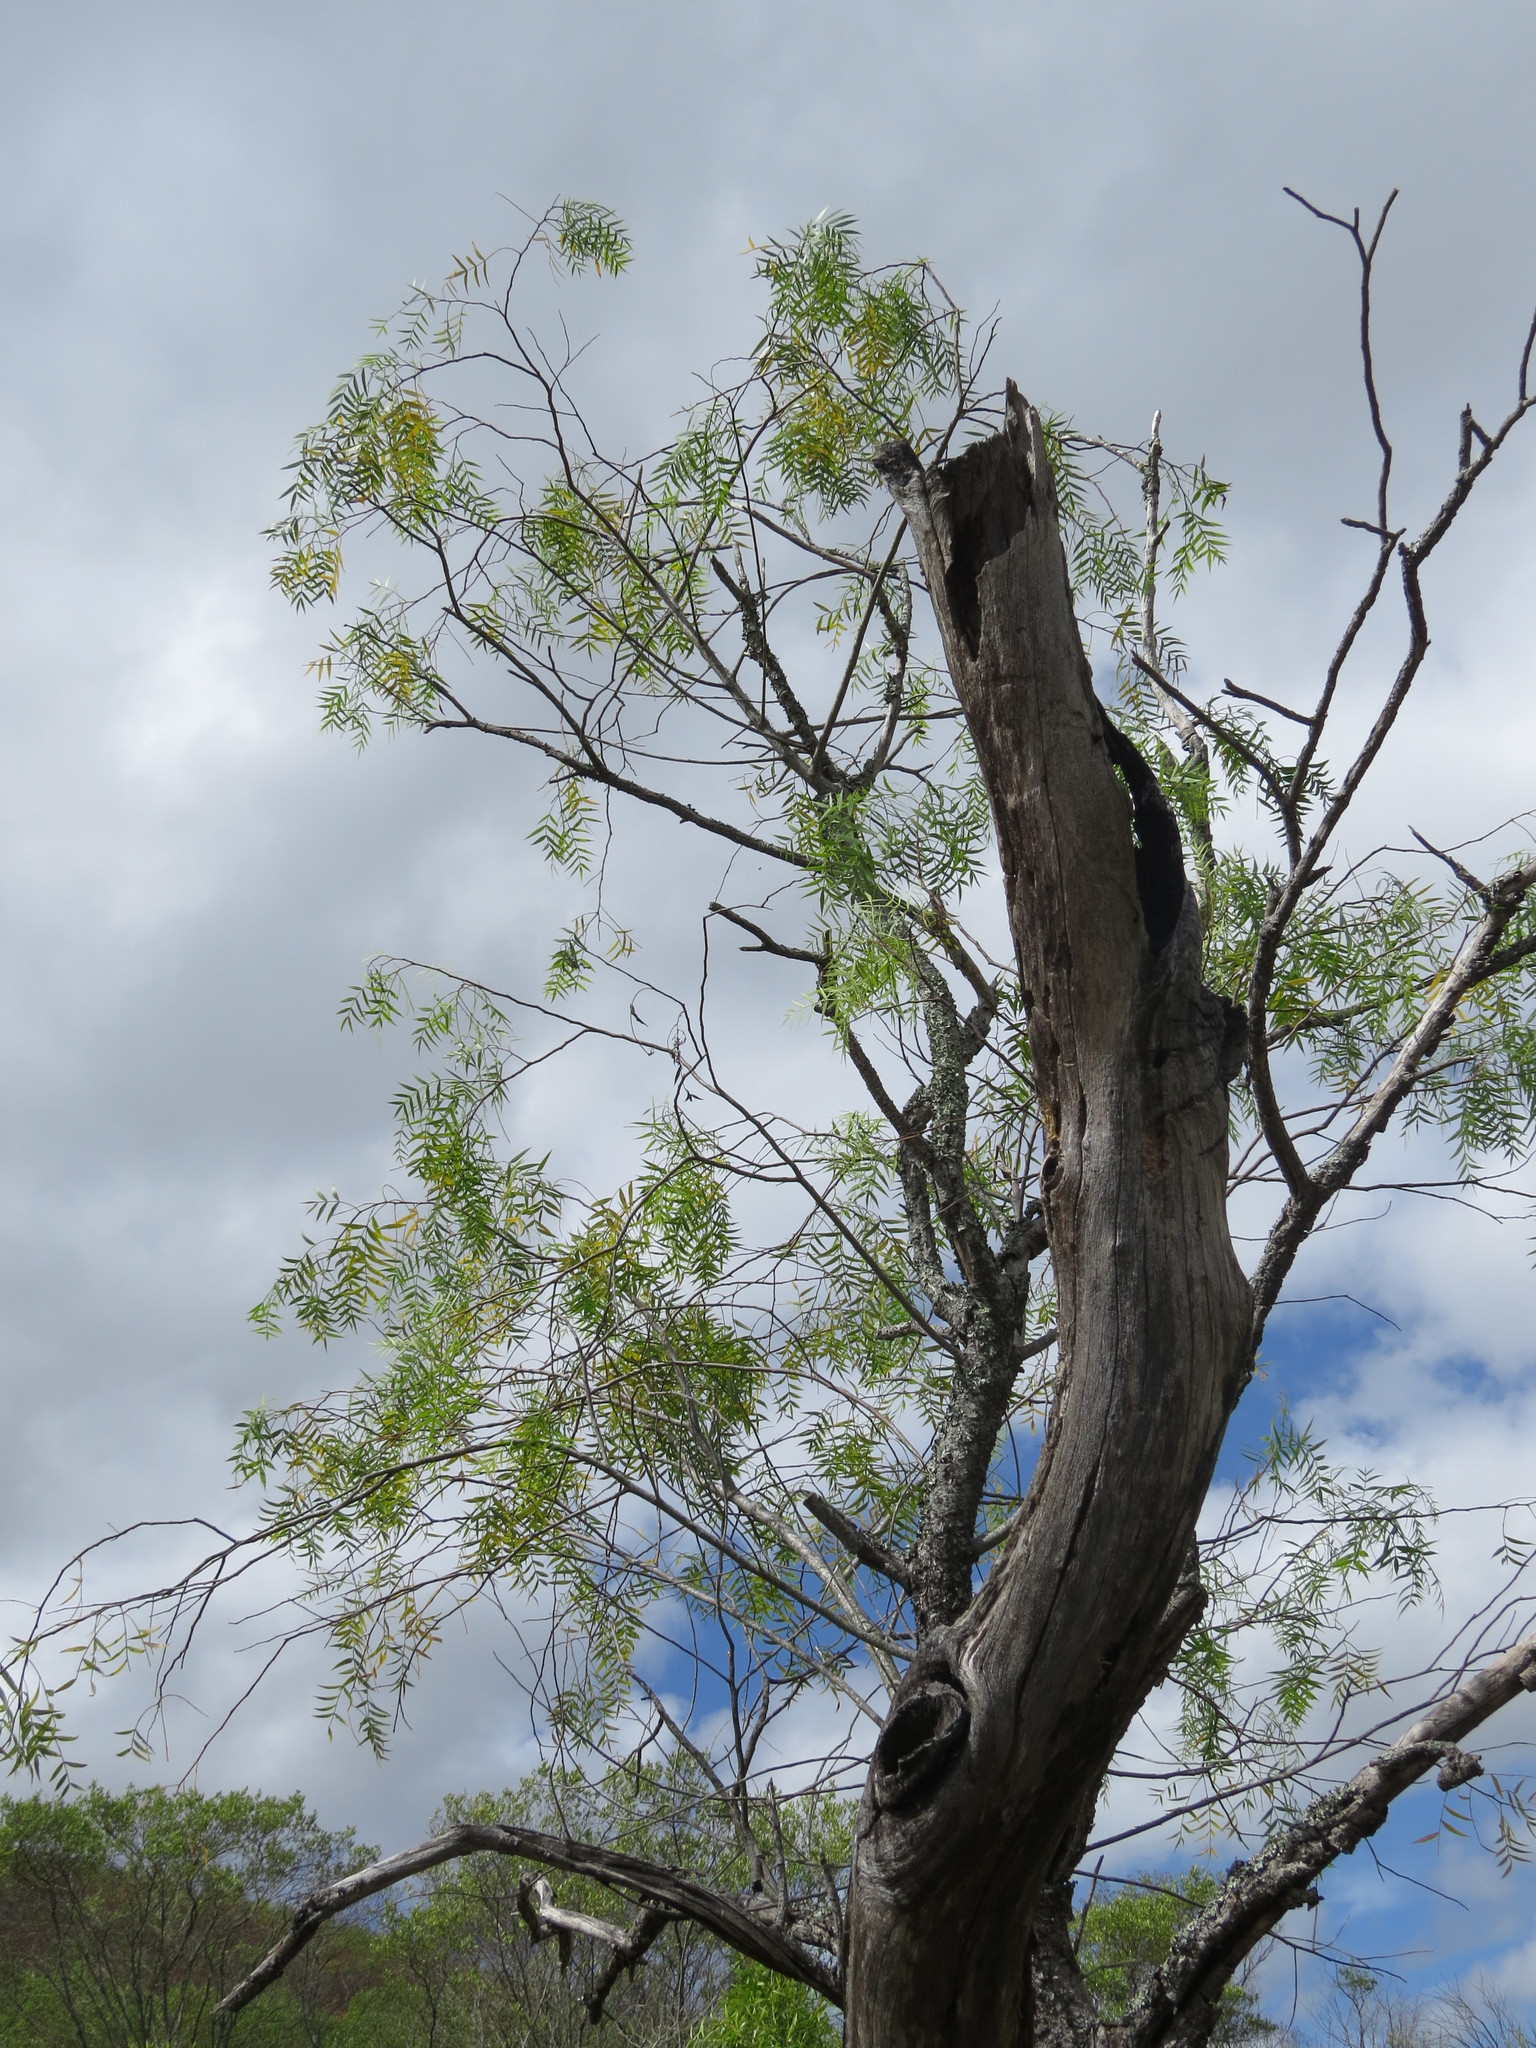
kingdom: Plantae
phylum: Tracheophyta
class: Magnoliopsida
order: Sapindales
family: Anacardiaceae
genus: Schinus
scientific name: Schinus molle
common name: Peruvian peppertree
